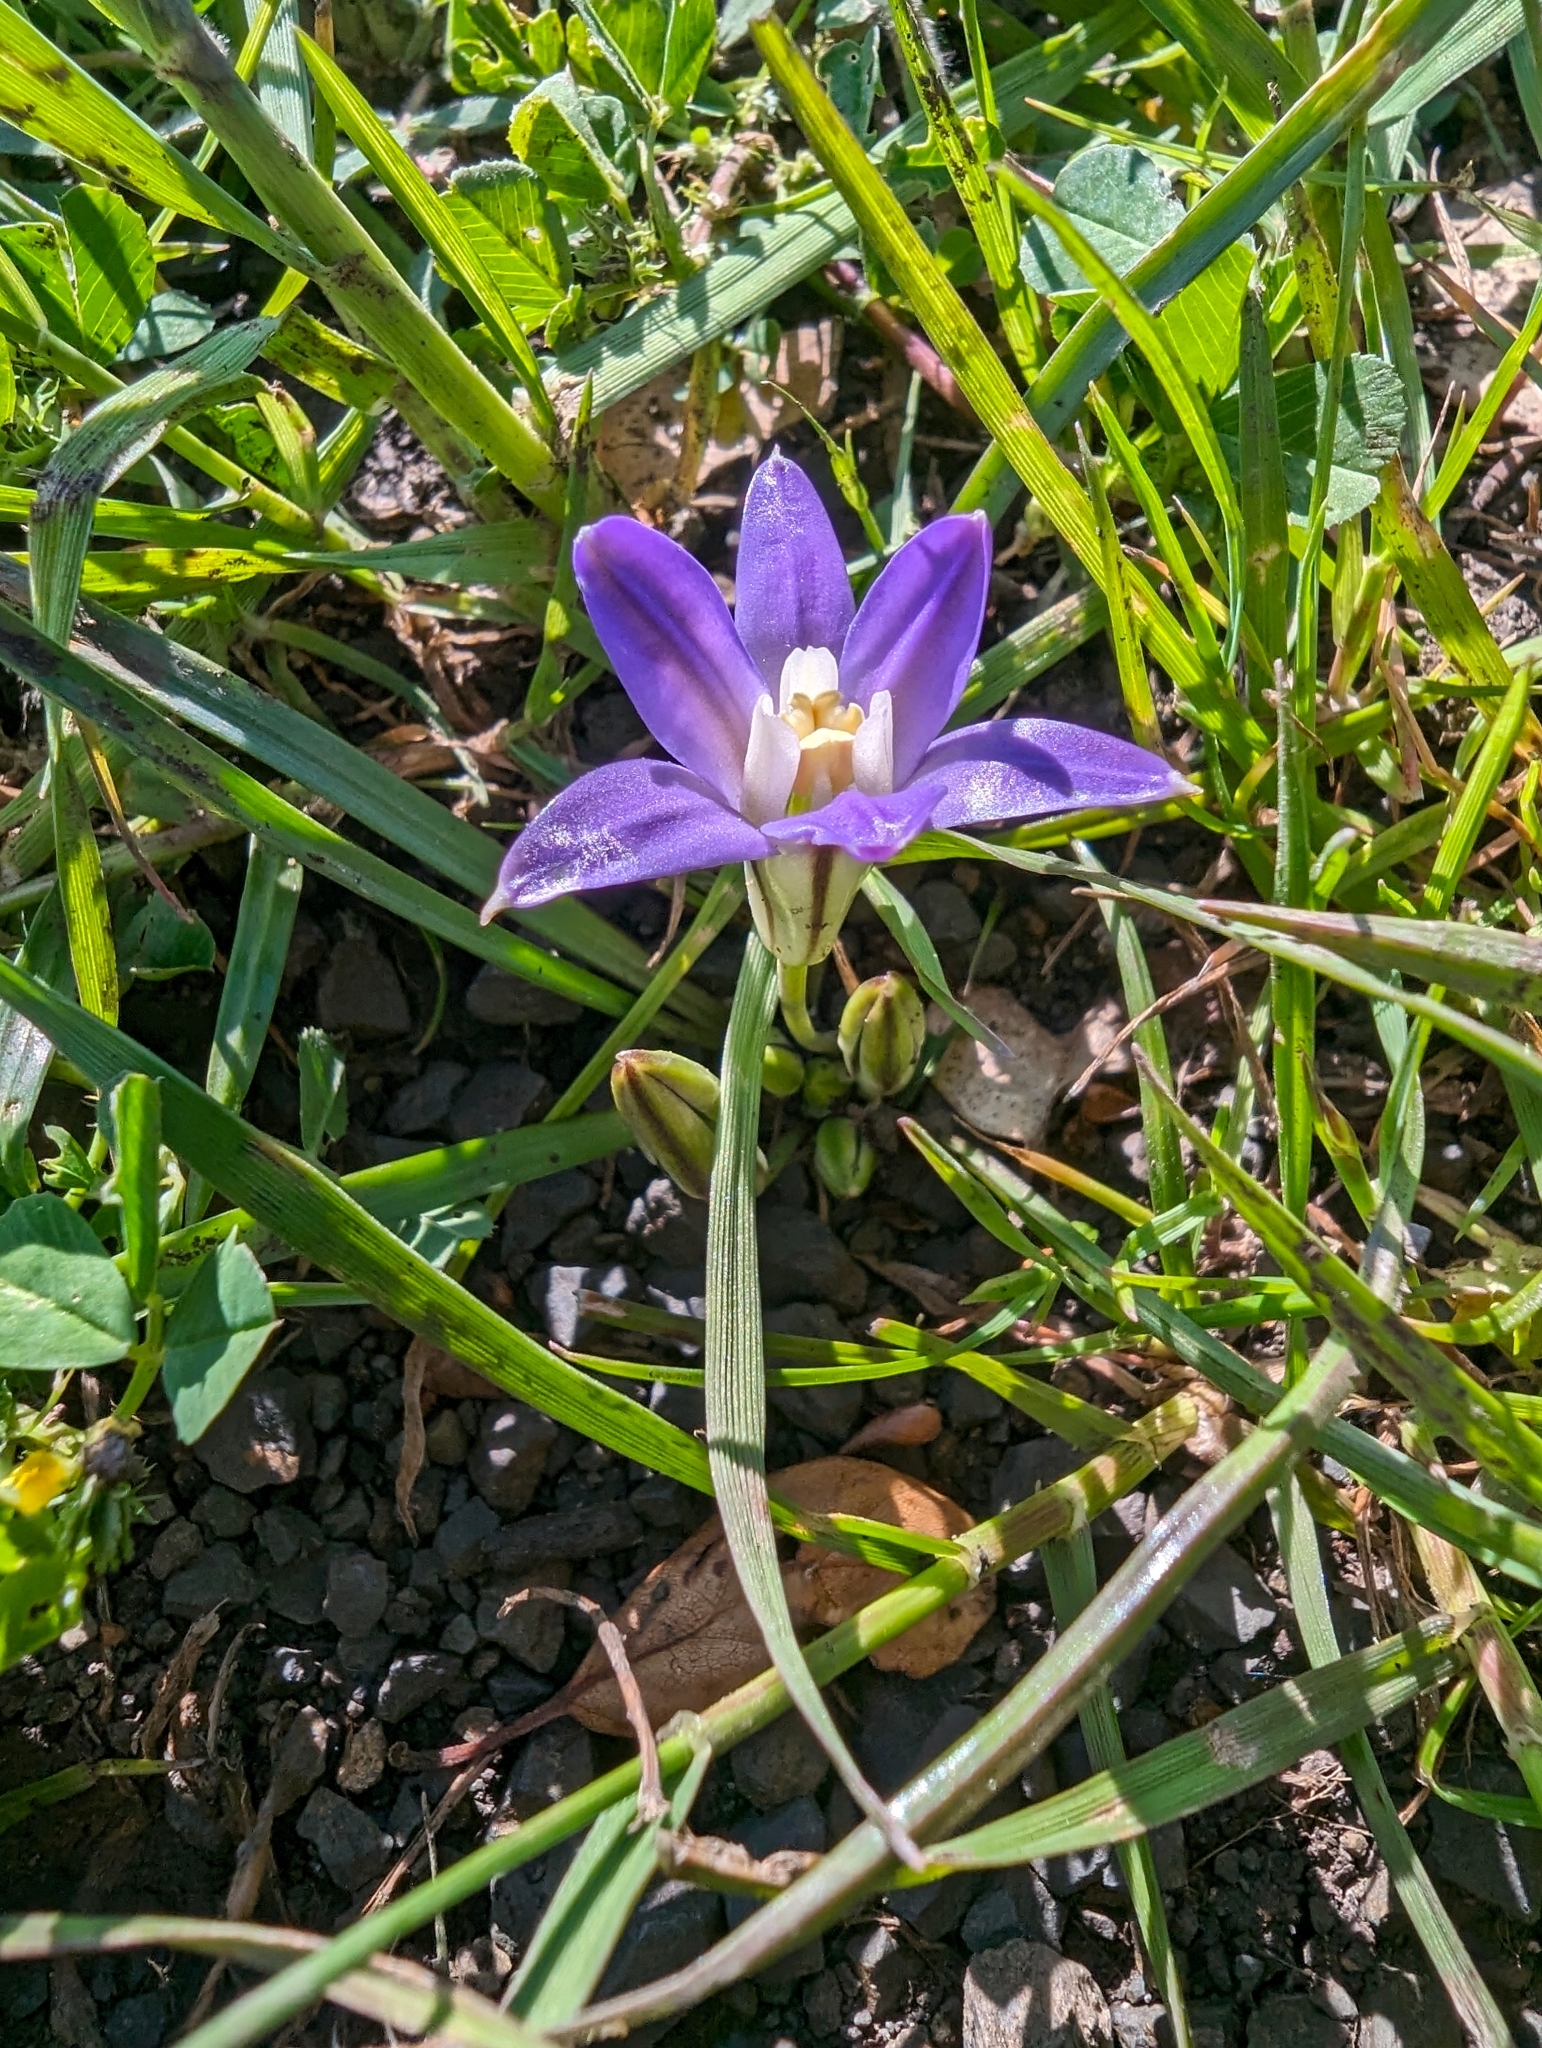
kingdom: Plantae
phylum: Tracheophyta
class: Liliopsida
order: Asparagales
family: Asparagaceae
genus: Brodiaea
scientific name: Brodiaea terrestris
